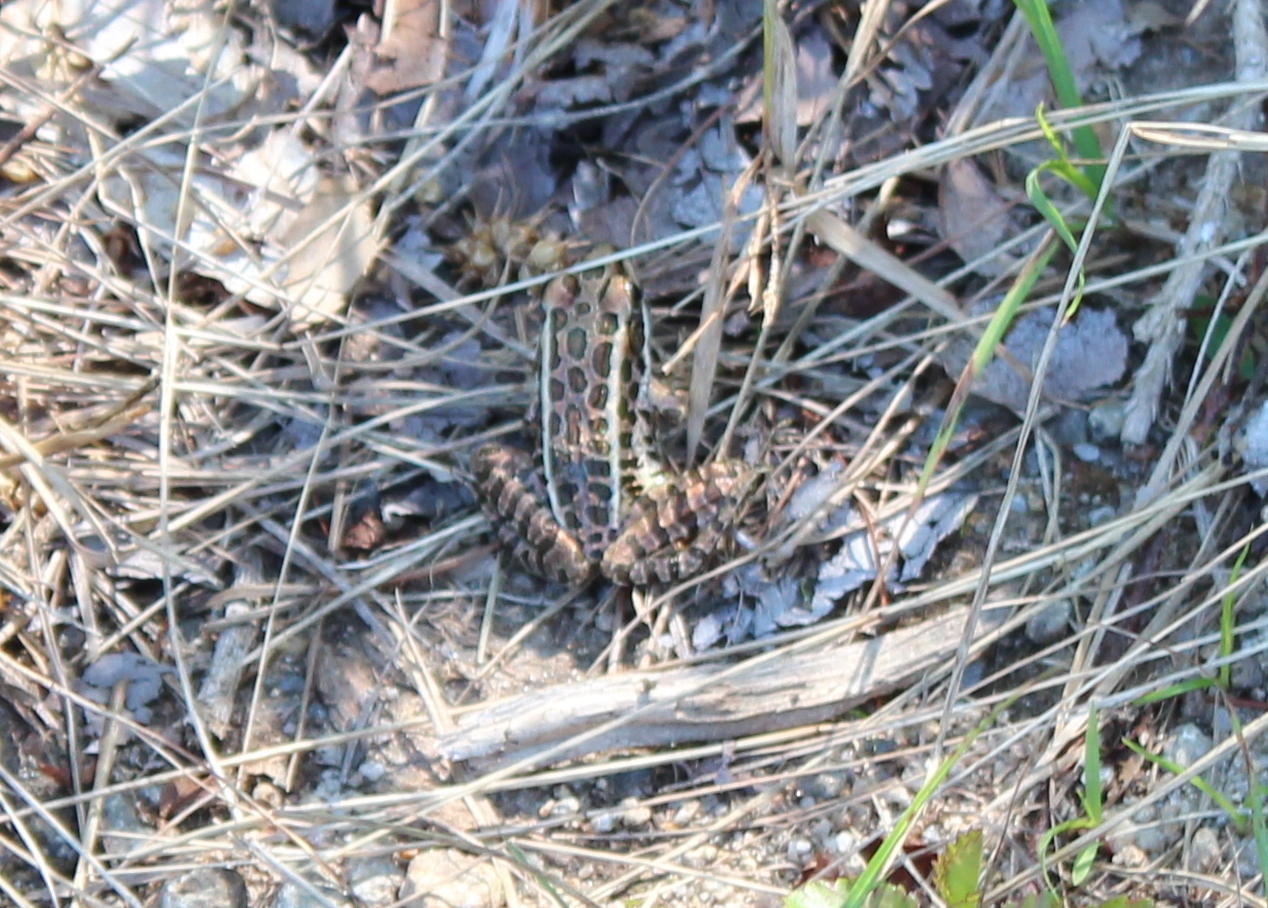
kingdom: Animalia
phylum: Chordata
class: Amphibia
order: Anura
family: Ranidae
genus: Lithobates
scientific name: Lithobates palustris
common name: Pickerel frog
